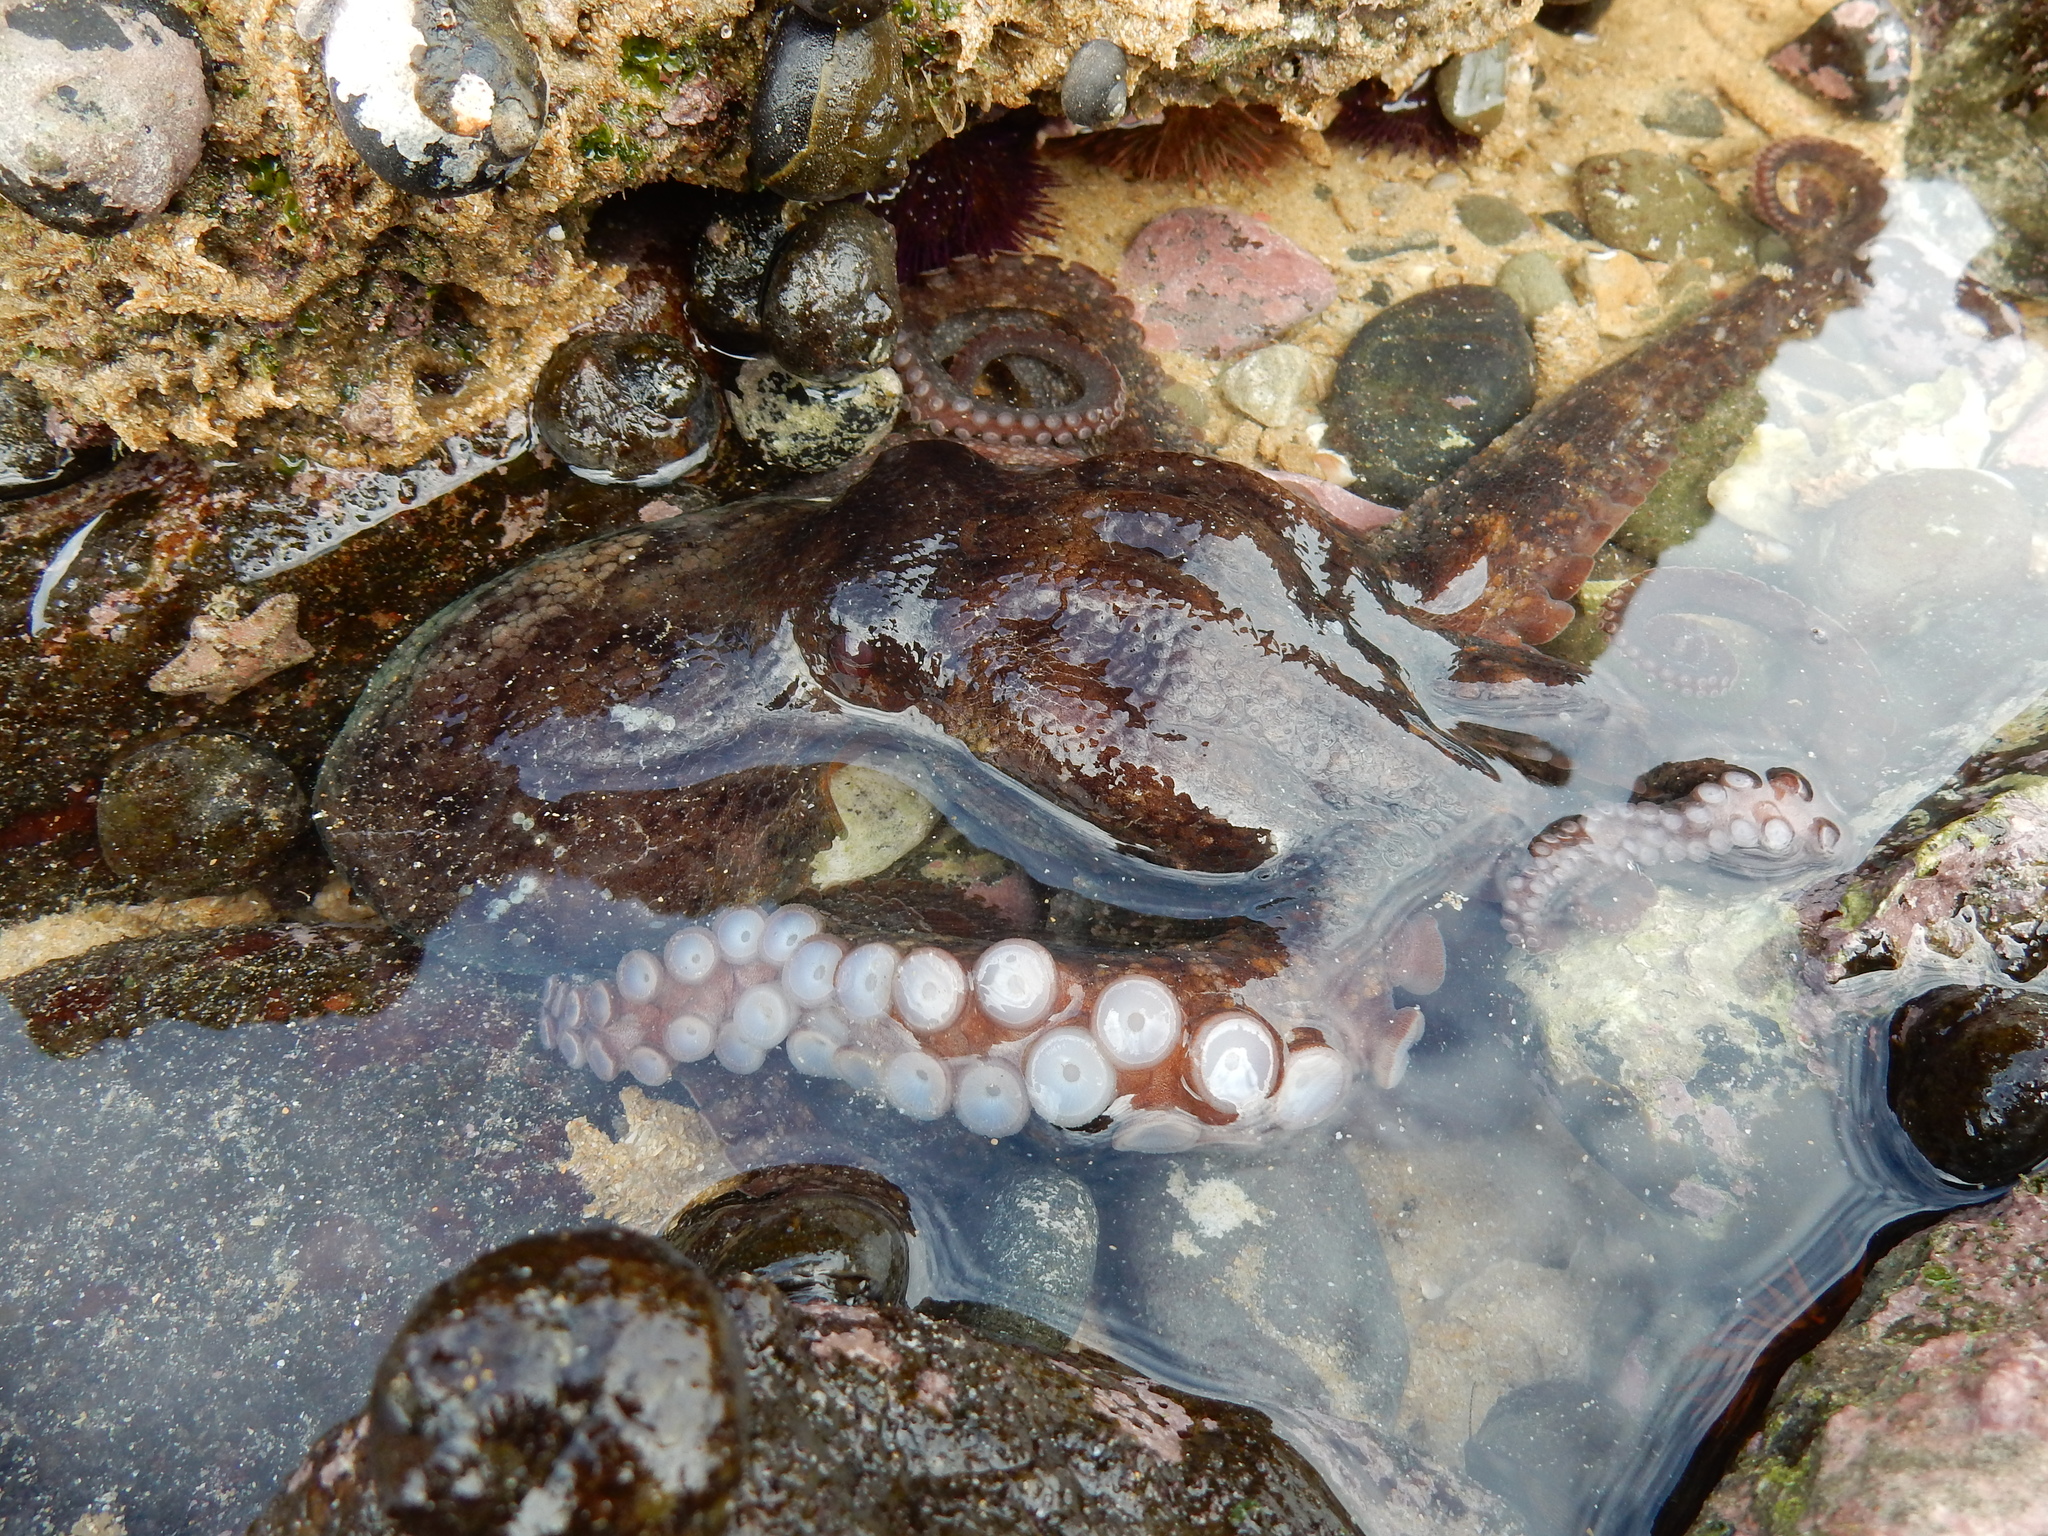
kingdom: Animalia
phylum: Mollusca
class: Cephalopoda
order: Octopoda
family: Octopodidae
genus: Octopus
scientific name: Octopus vulgaris
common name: Common octopus
